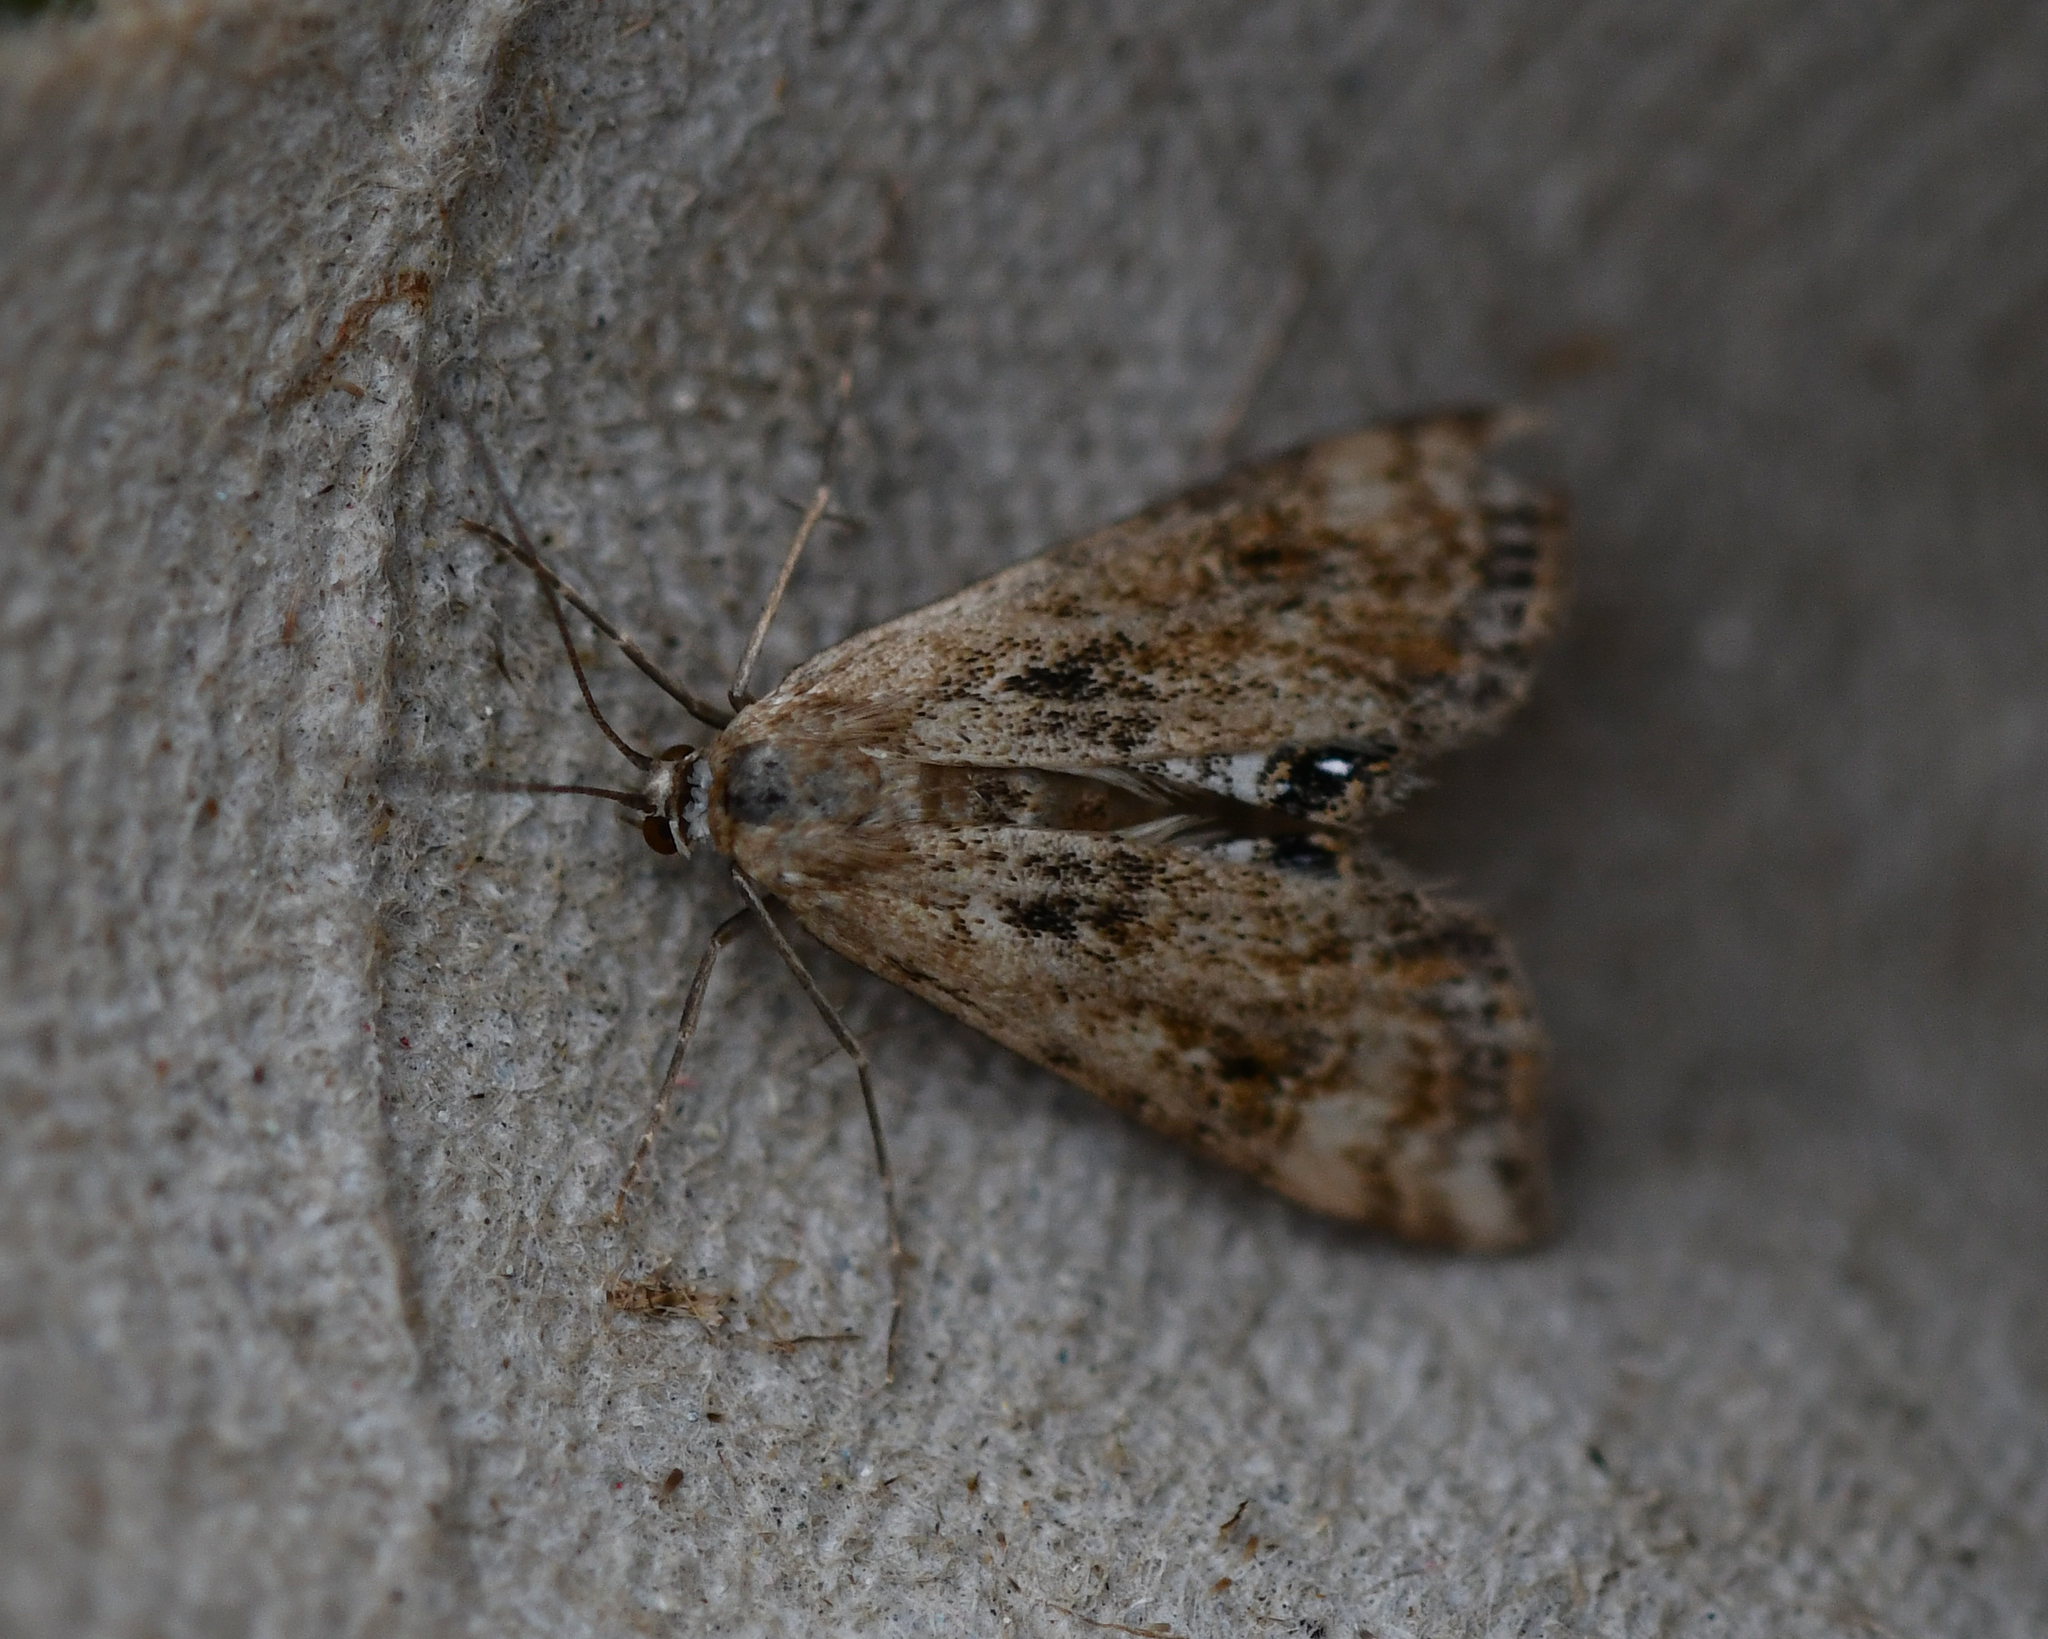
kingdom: Animalia
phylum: Arthropoda
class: Insecta
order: Lepidoptera
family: Crambidae
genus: Cataclysta
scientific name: Cataclysta lemnata
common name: Small china-mark
